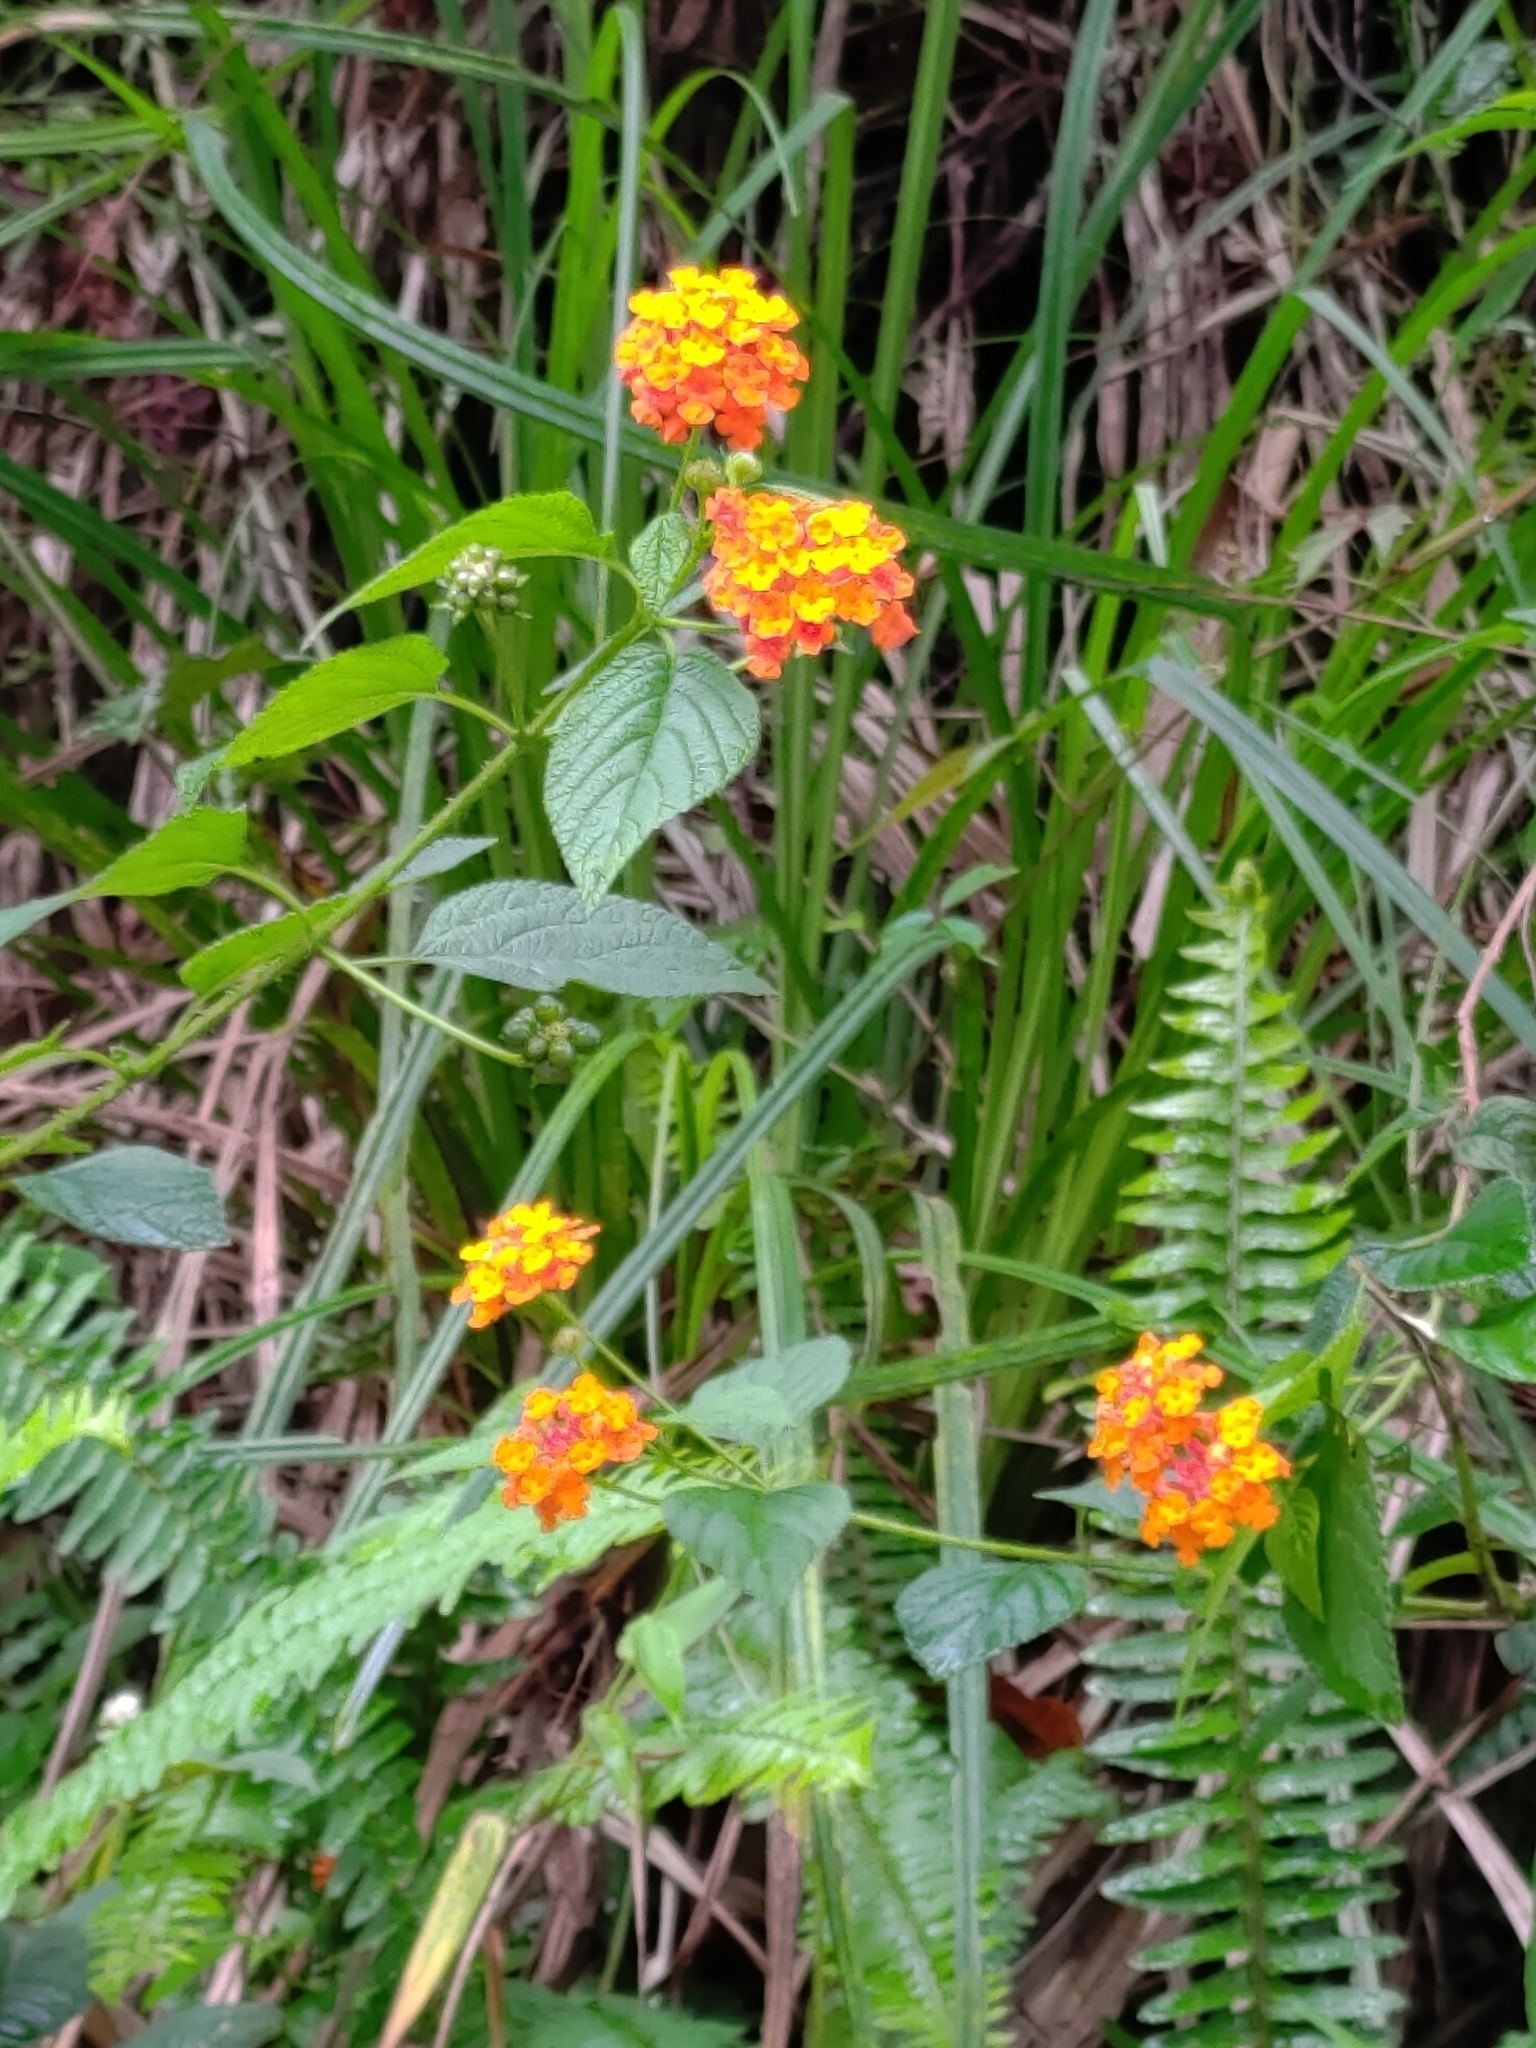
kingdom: Plantae
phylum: Tracheophyta
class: Magnoliopsida
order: Lamiales
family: Verbenaceae
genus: Lantana
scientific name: Lantana camara
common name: Lantana
